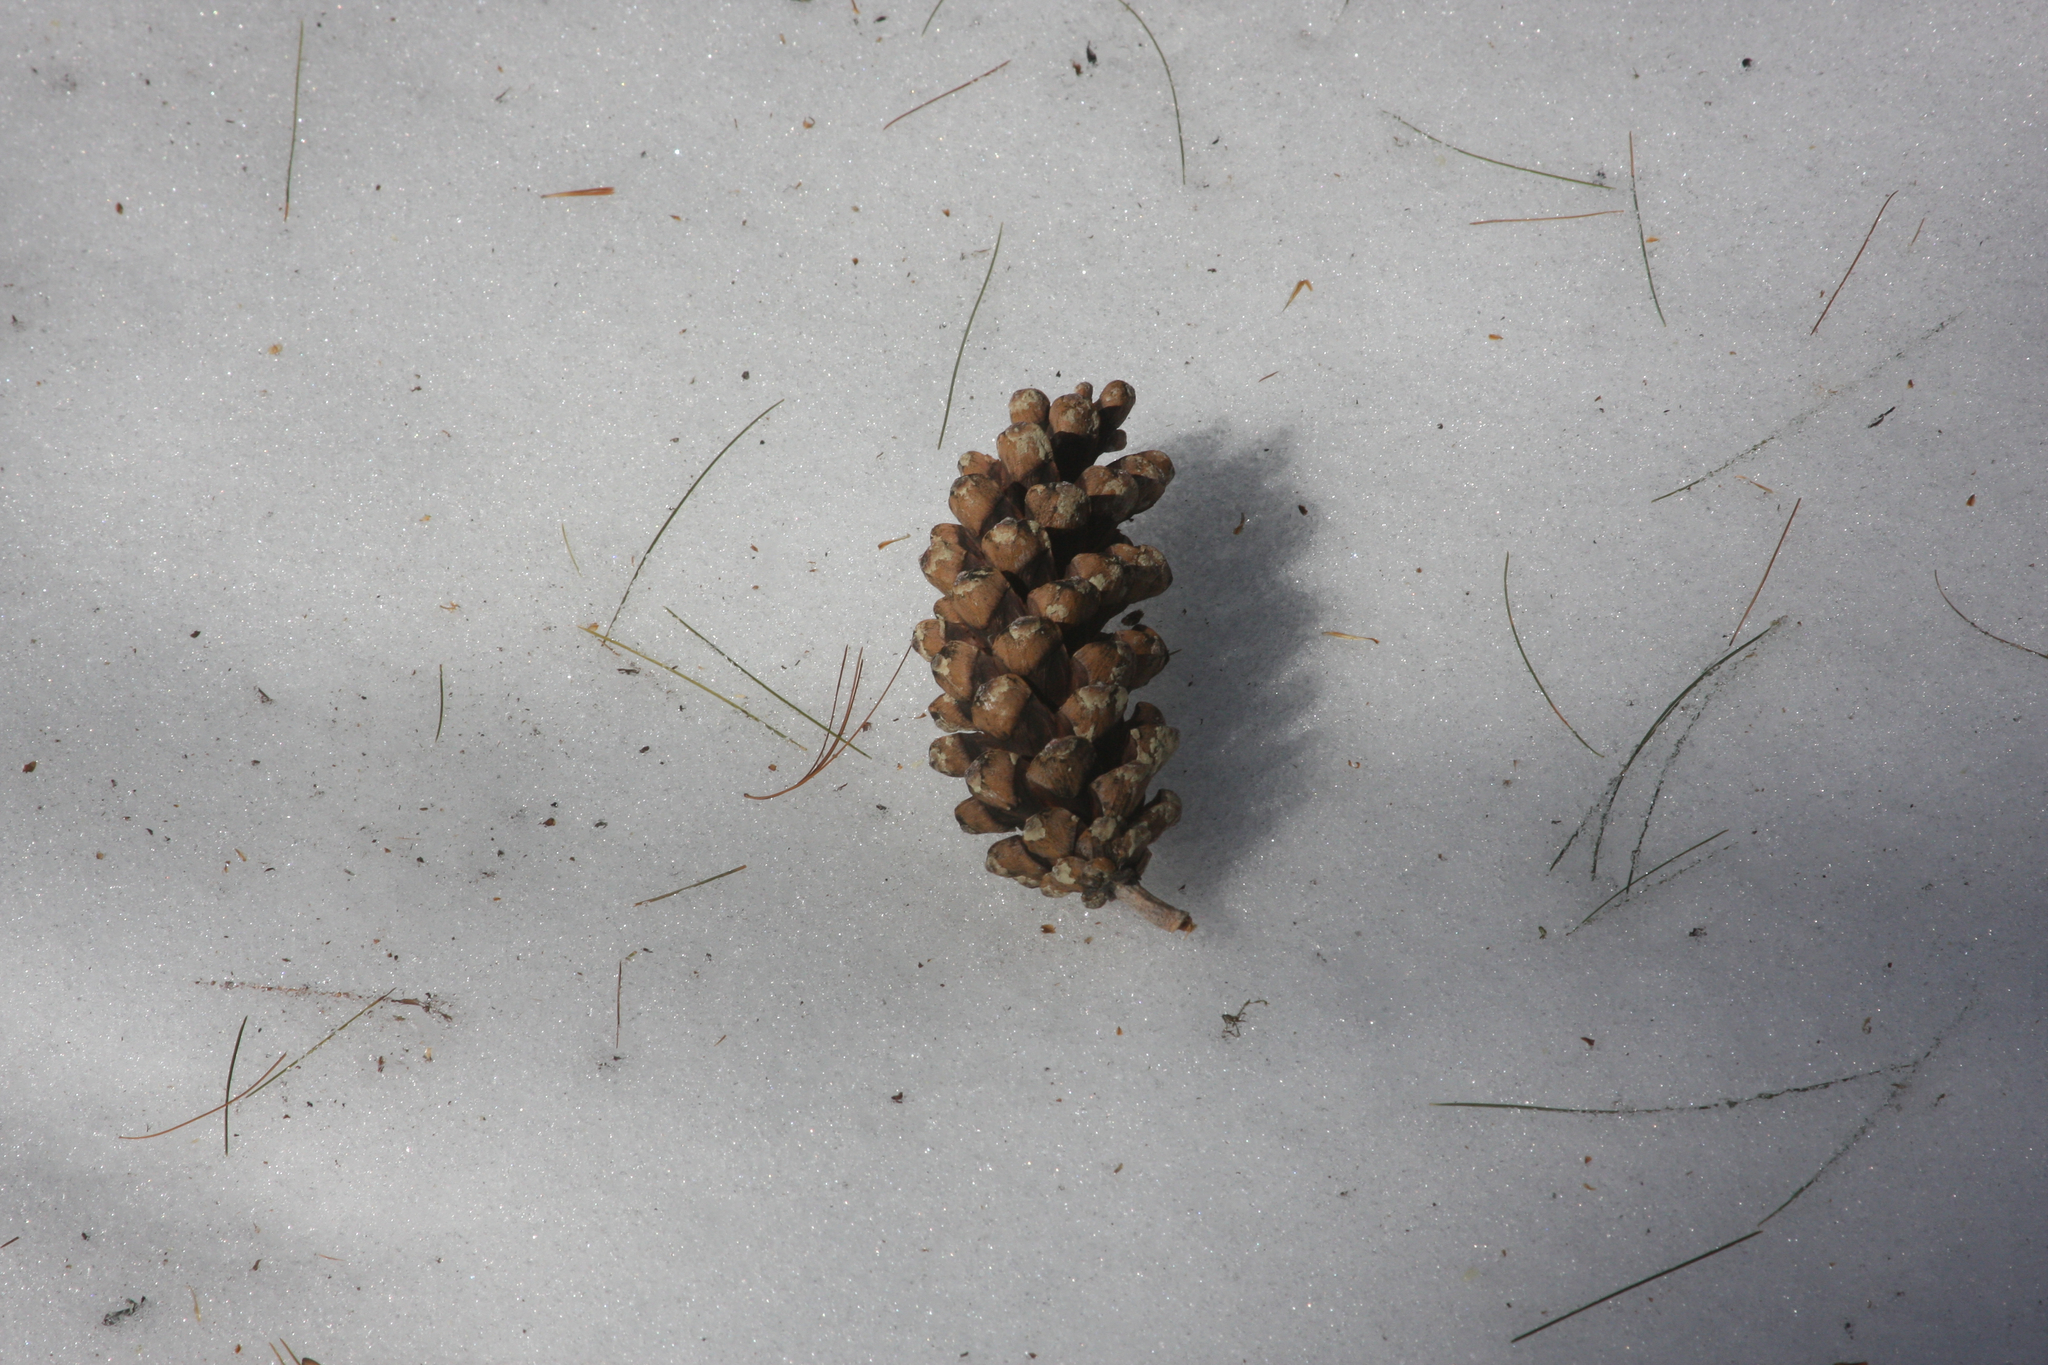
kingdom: Plantae
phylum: Tracheophyta
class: Pinopsida
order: Pinales
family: Pinaceae
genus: Pinus
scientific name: Pinus strobus
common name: Weymouth pine
